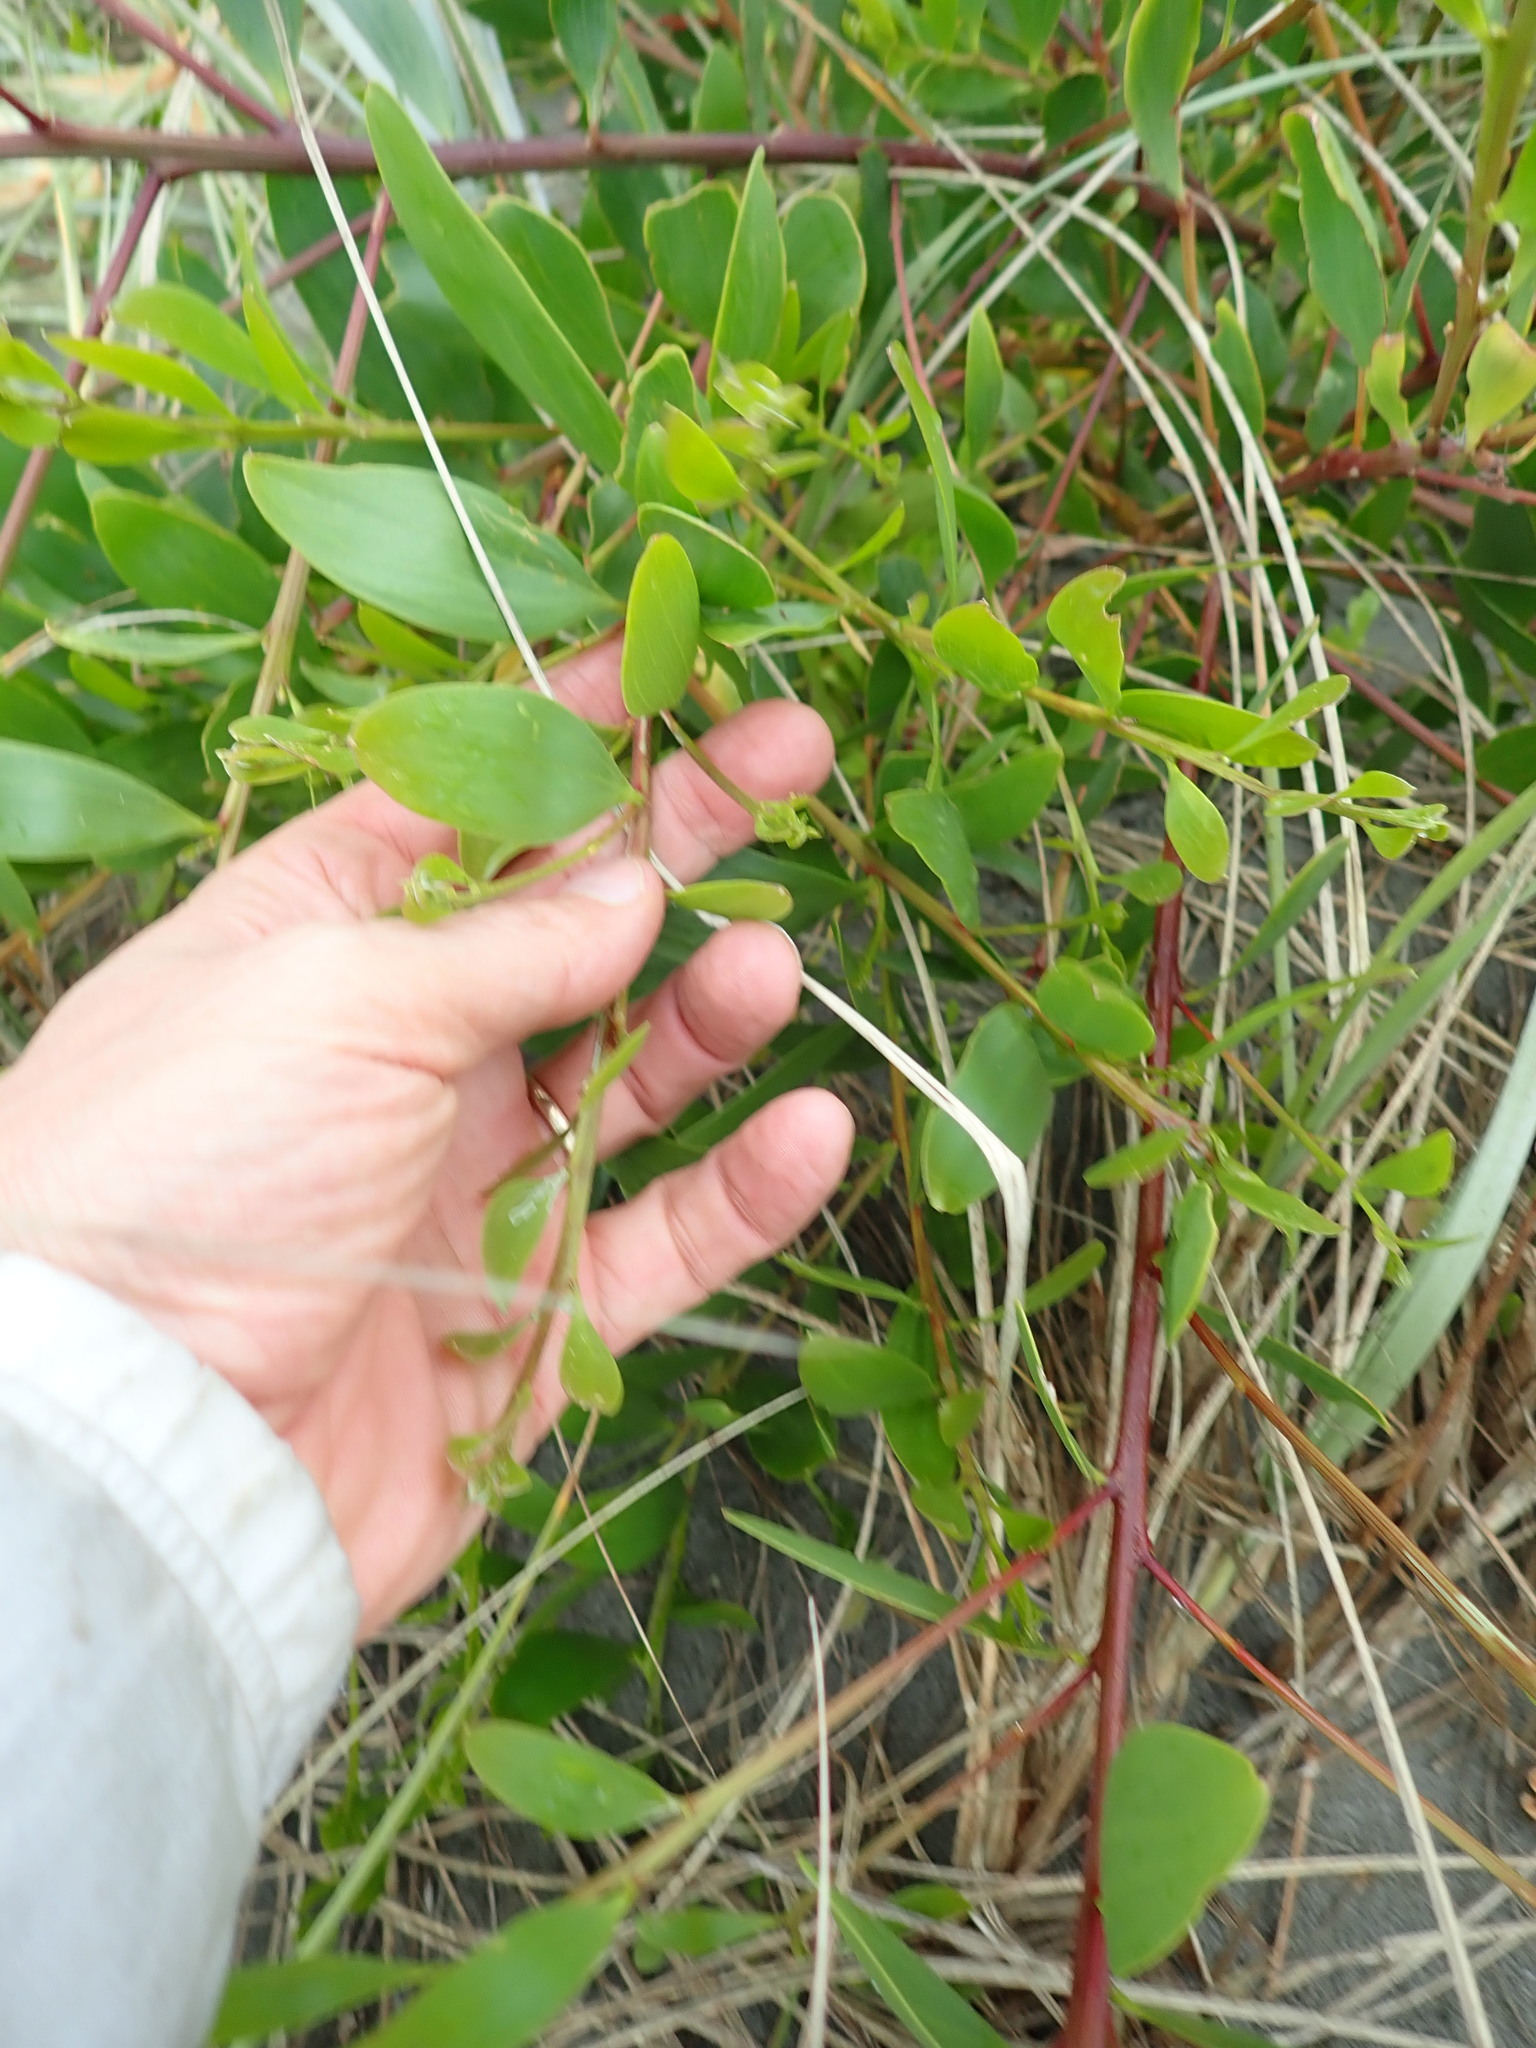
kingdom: Plantae
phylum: Tracheophyta
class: Magnoliopsida
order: Fabales
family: Fabaceae
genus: Acacia
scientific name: Acacia longifolia
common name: Sydney golden wattle
